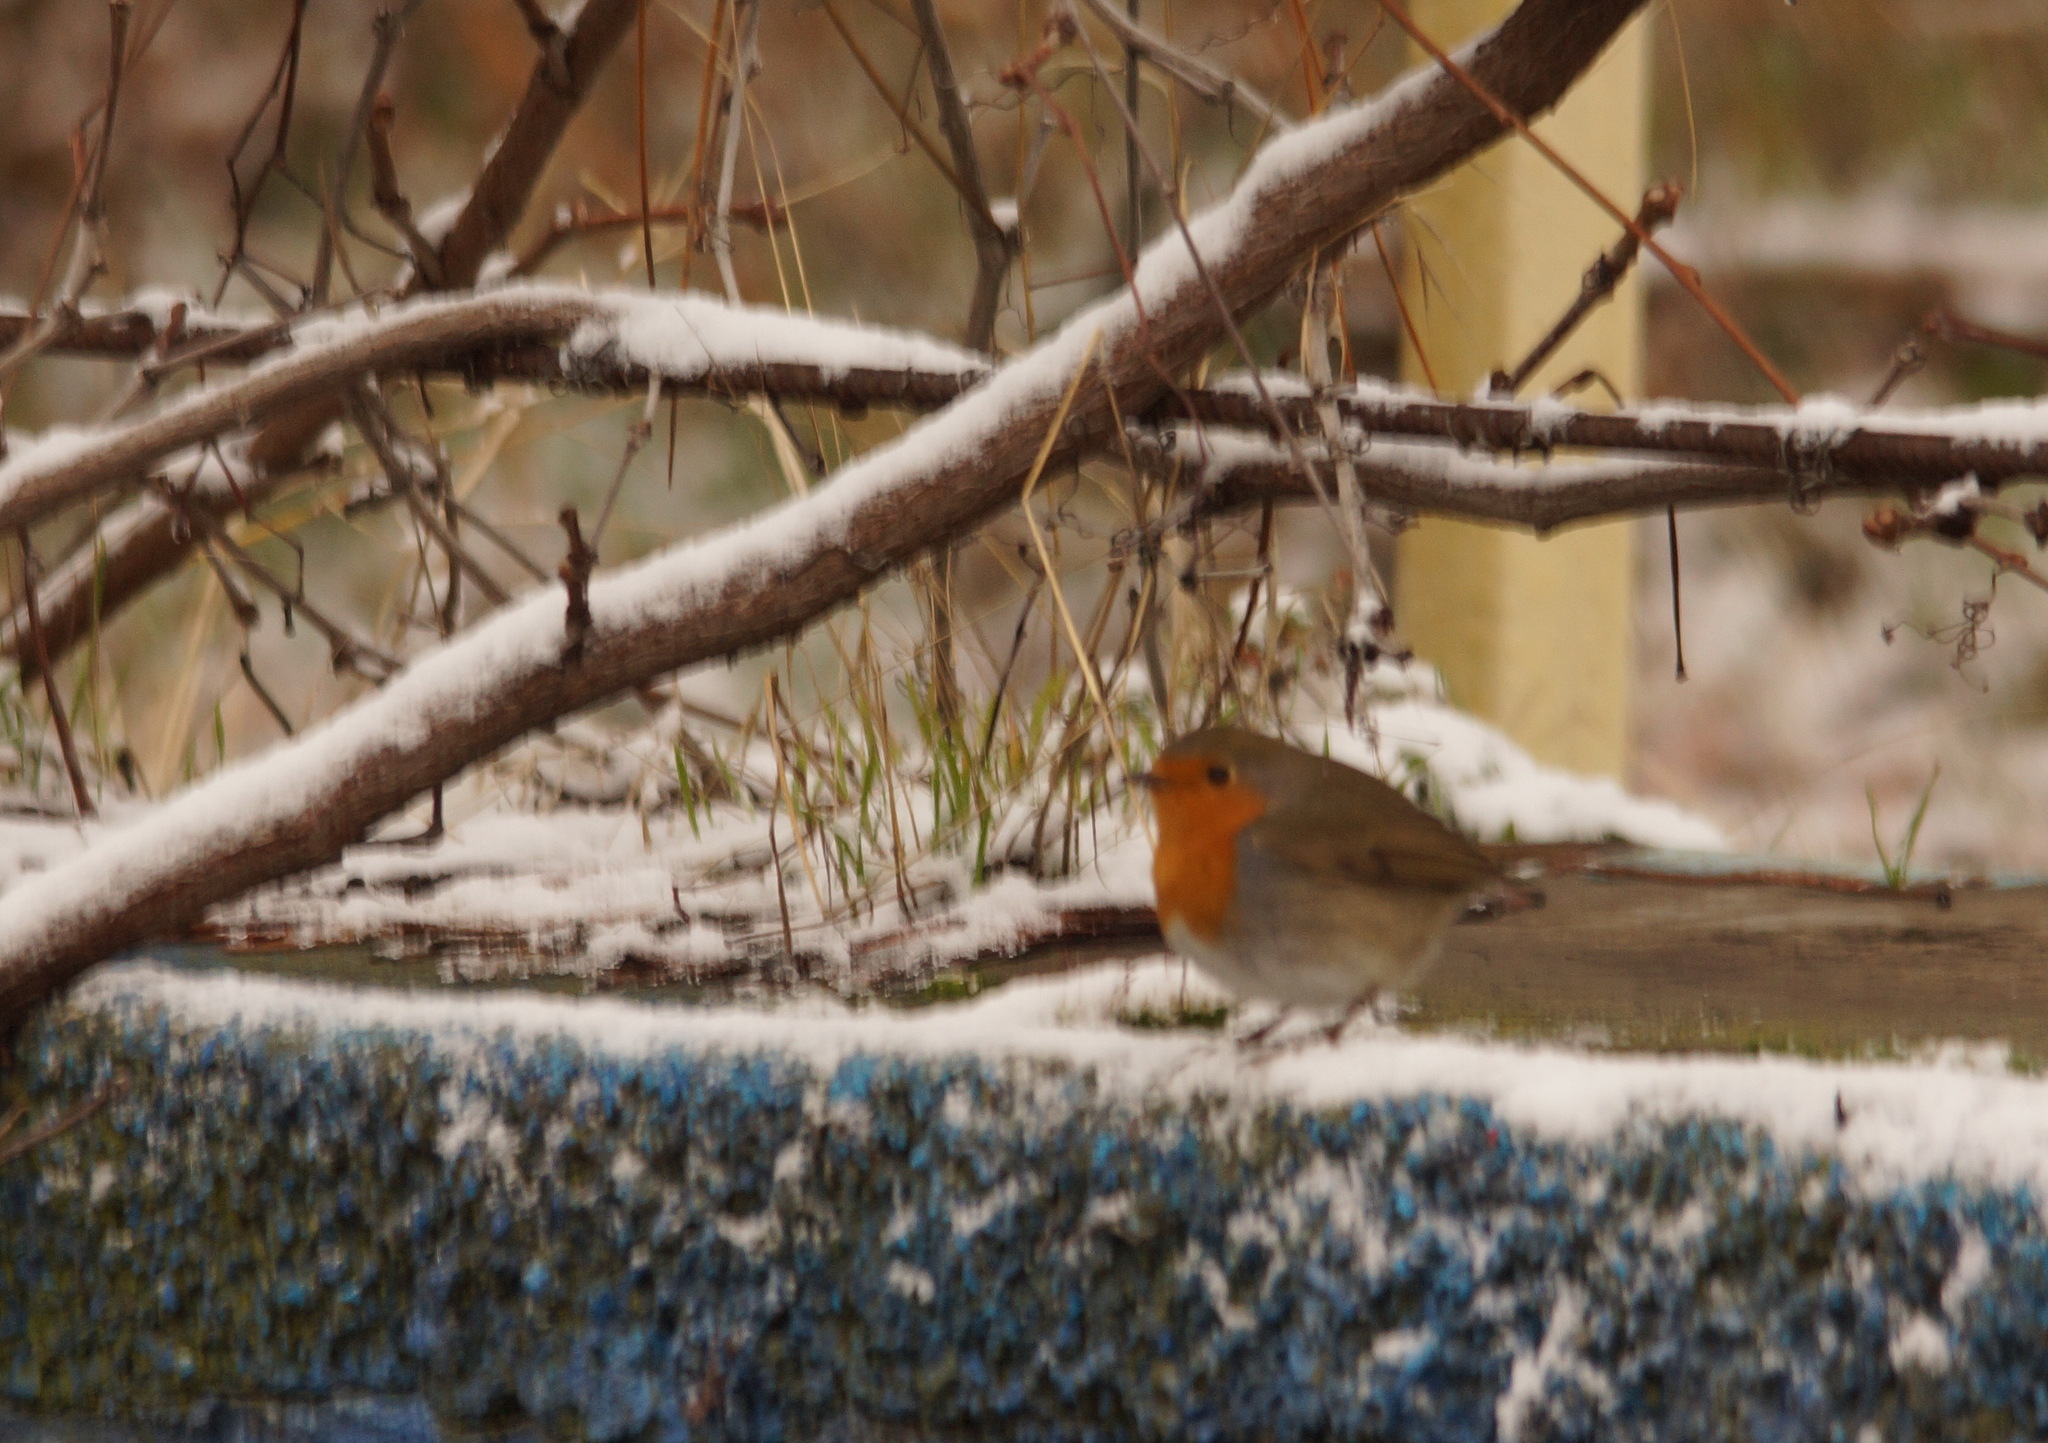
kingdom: Animalia
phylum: Chordata
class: Aves
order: Passeriformes
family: Muscicapidae
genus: Erithacus
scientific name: Erithacus rubecula
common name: European robin
